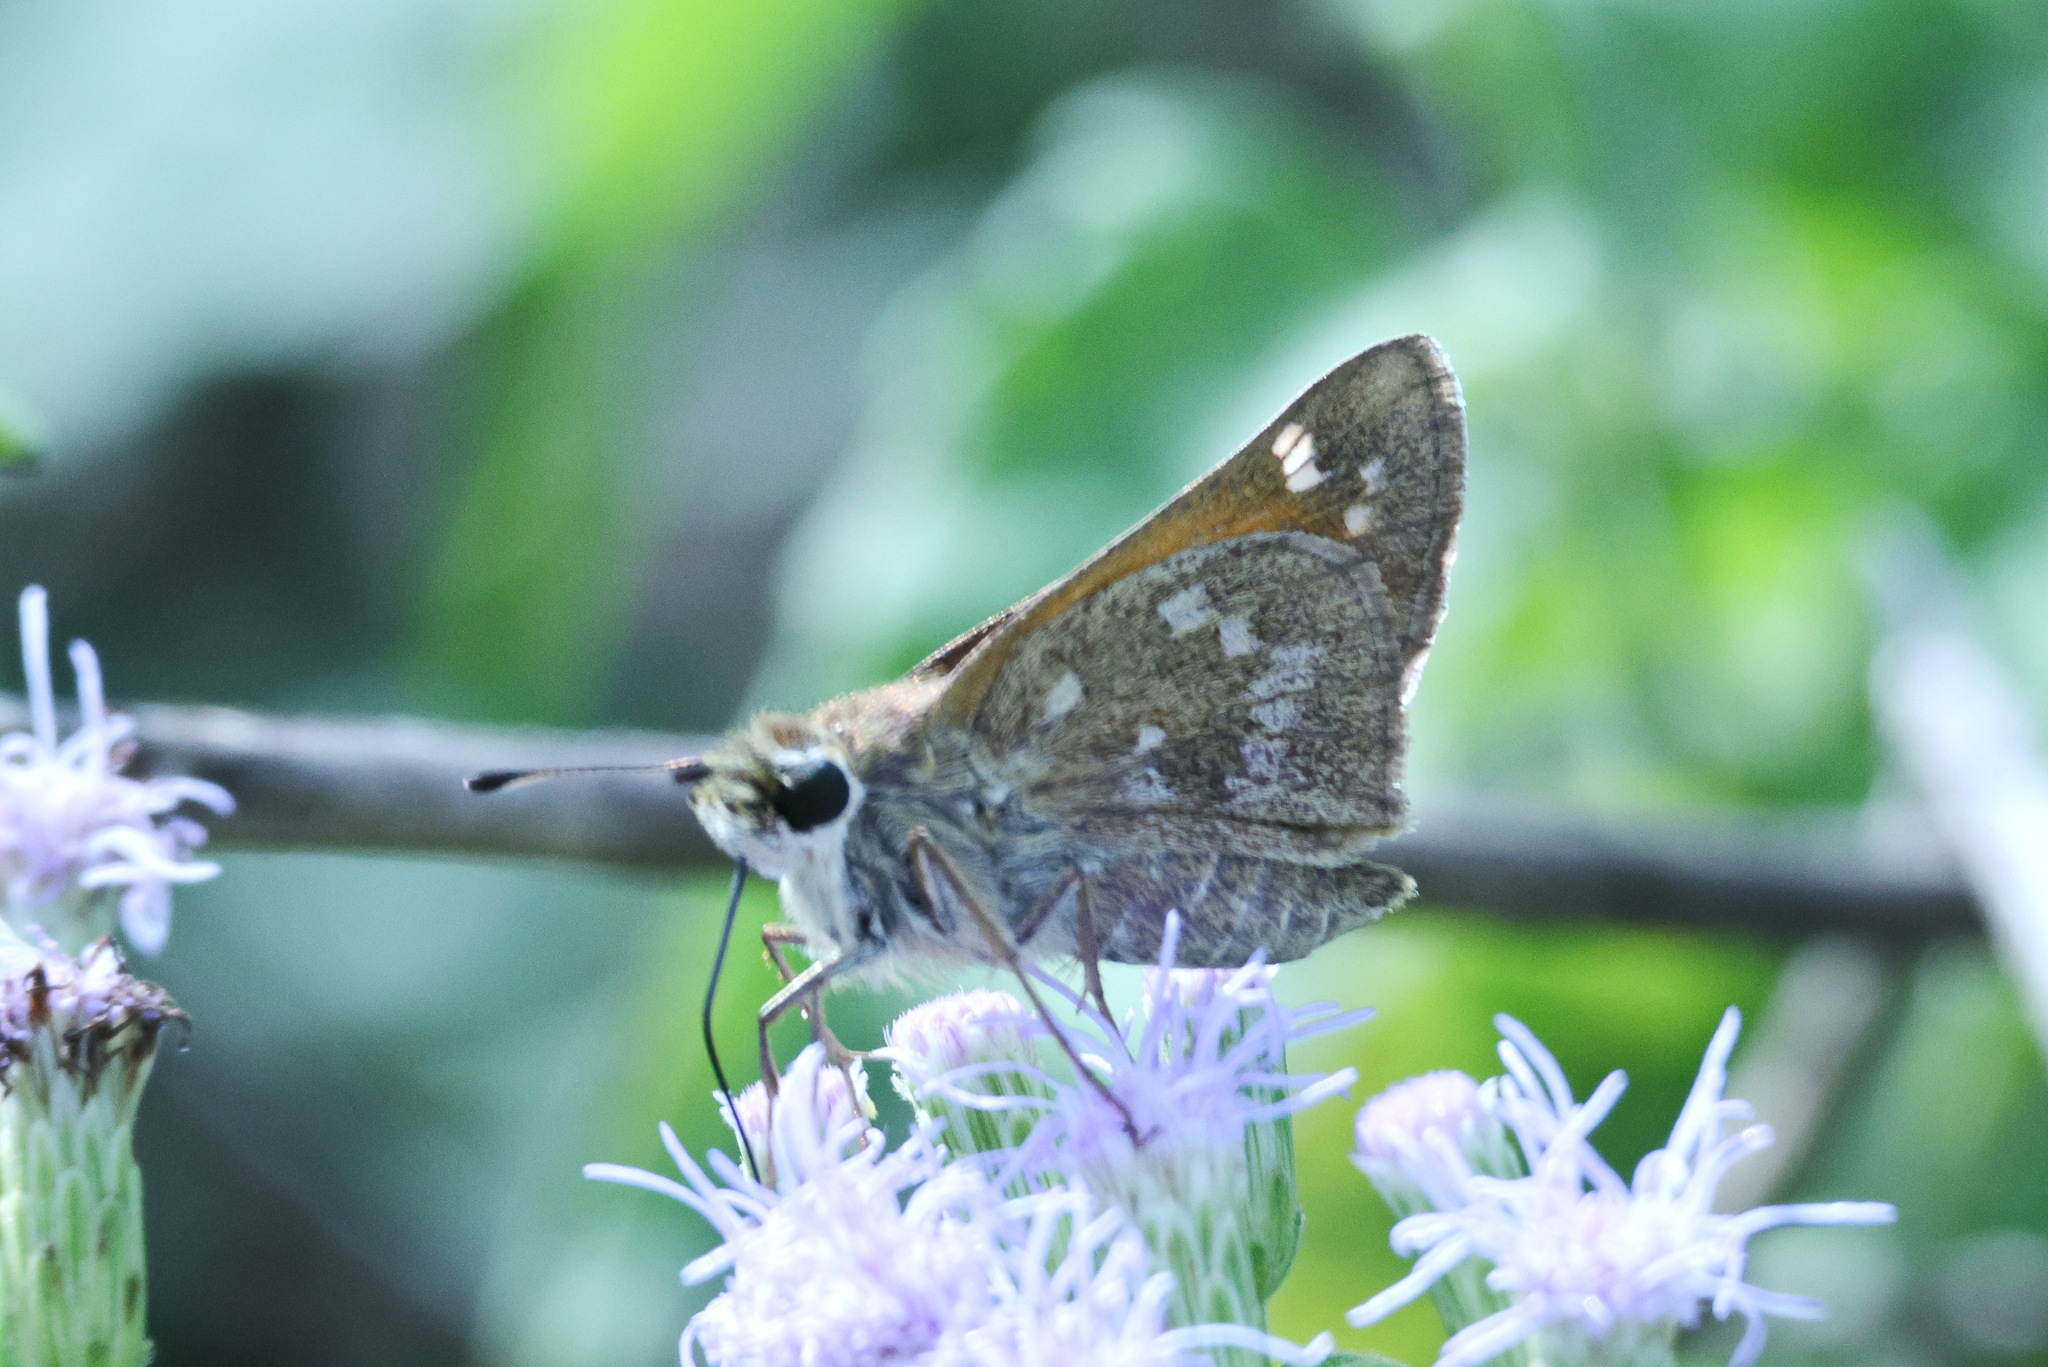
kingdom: Animalia
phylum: Arthropoda
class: Insecta
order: Lepidoptera
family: Hesperiidae
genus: Atalopedes
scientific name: Atalopedes
